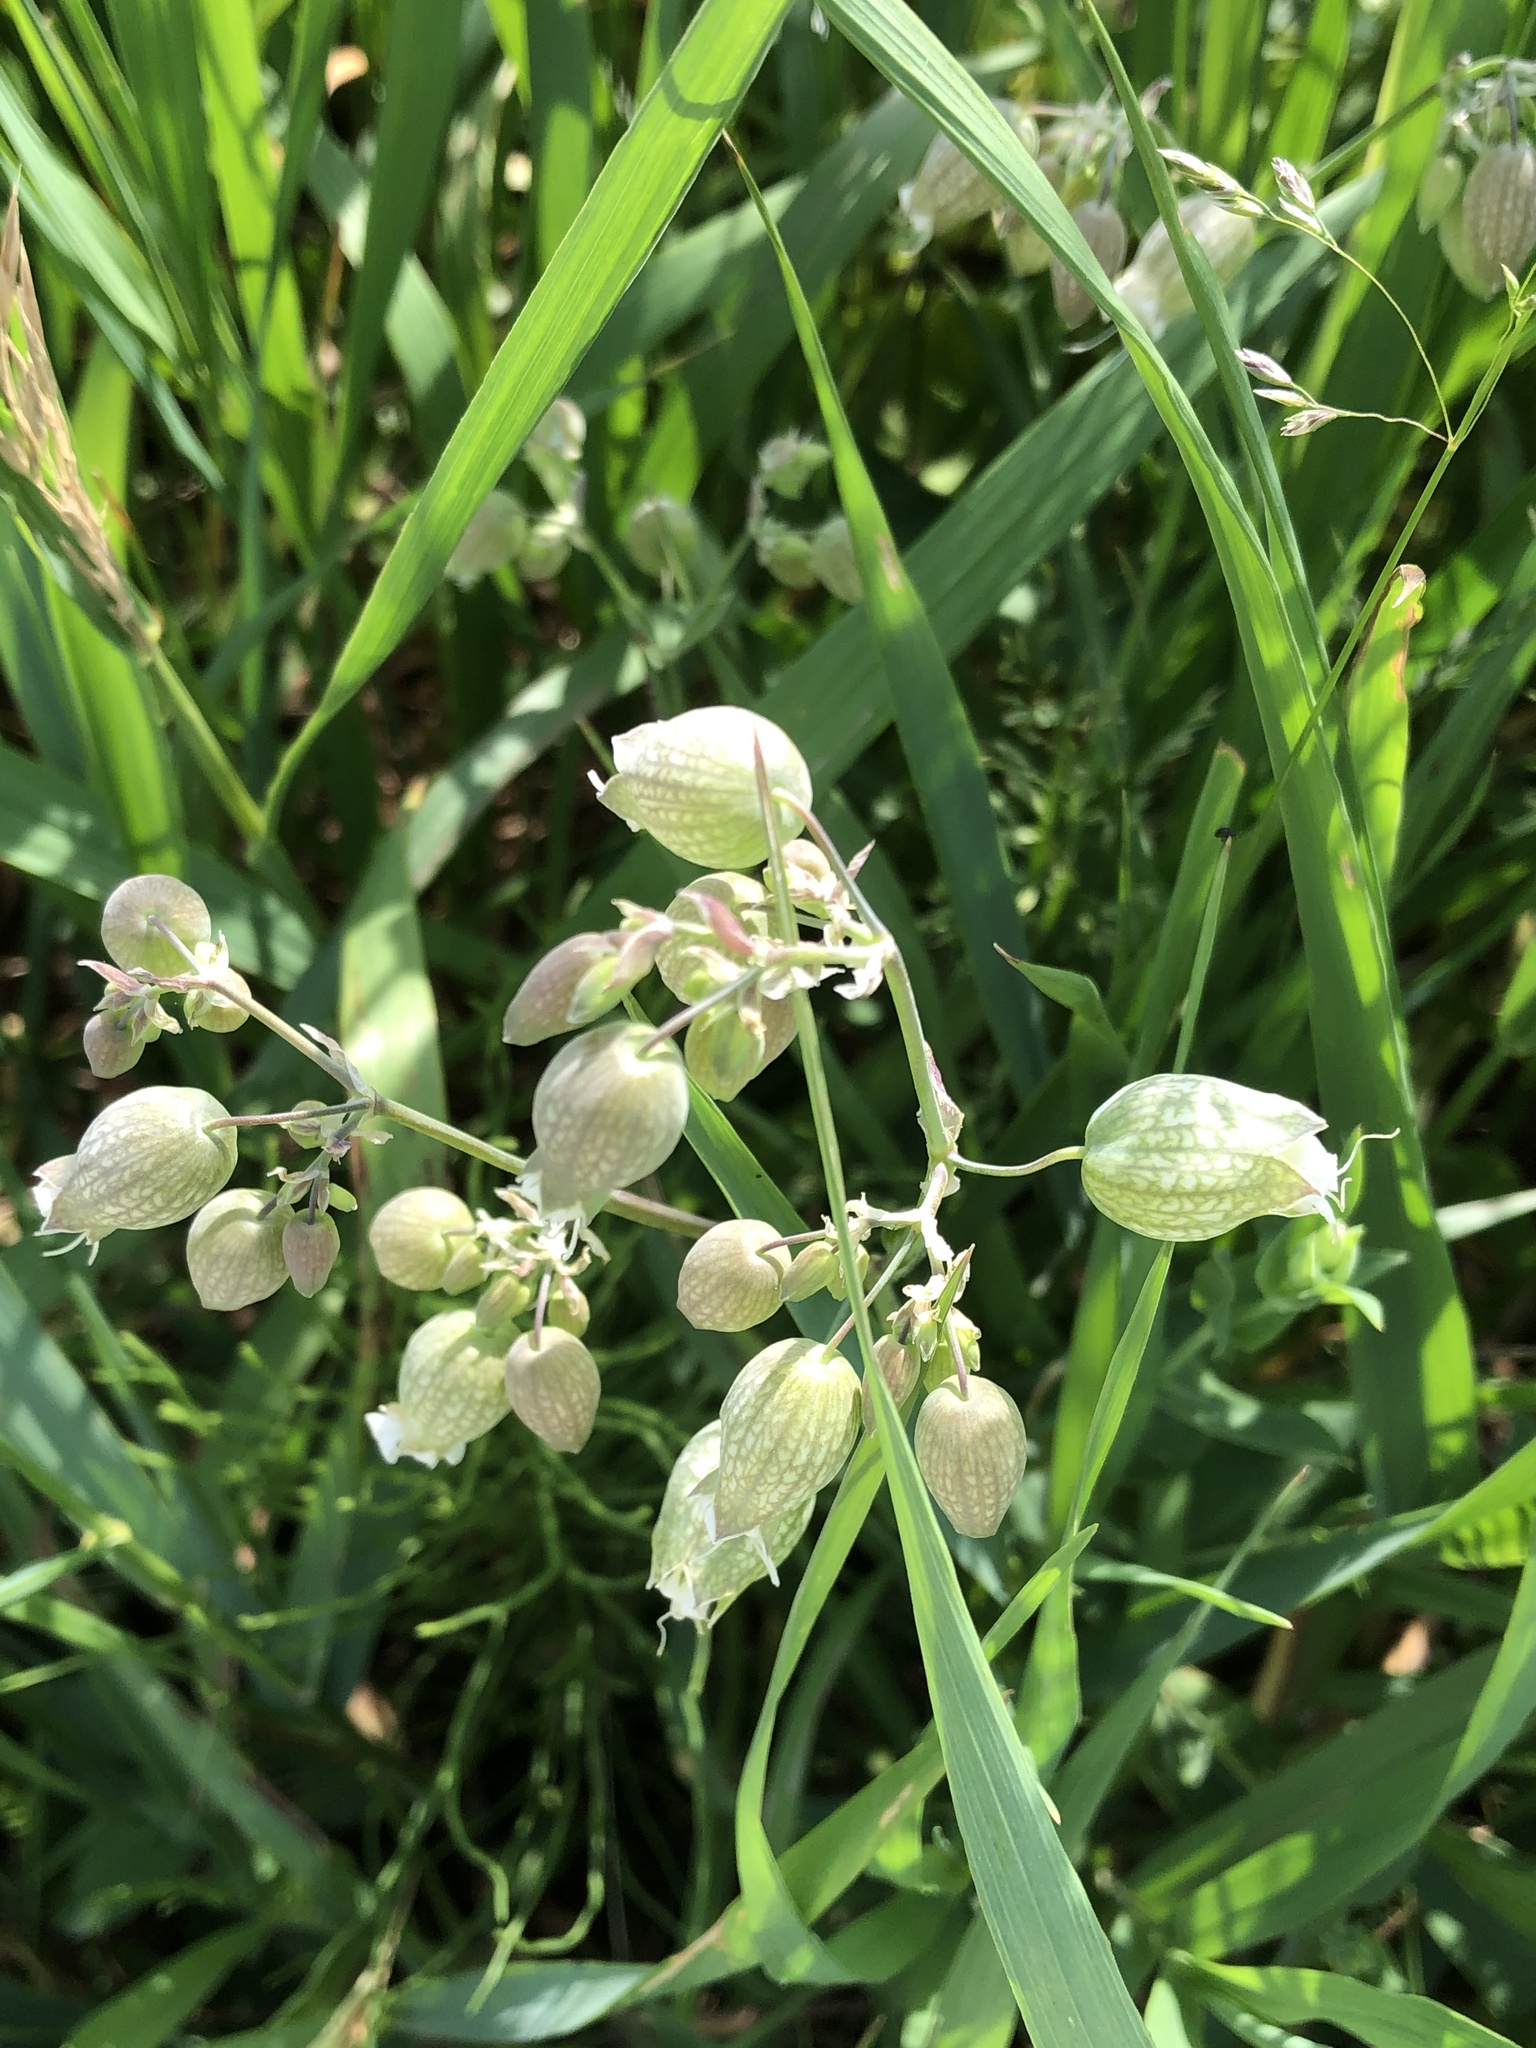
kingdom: Plantae
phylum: Tracheophyta
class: Magnoliopsida
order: Caryophyllales
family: Caryophyllaceae
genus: Silene
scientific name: Silene vulgaris
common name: Bladder campion
